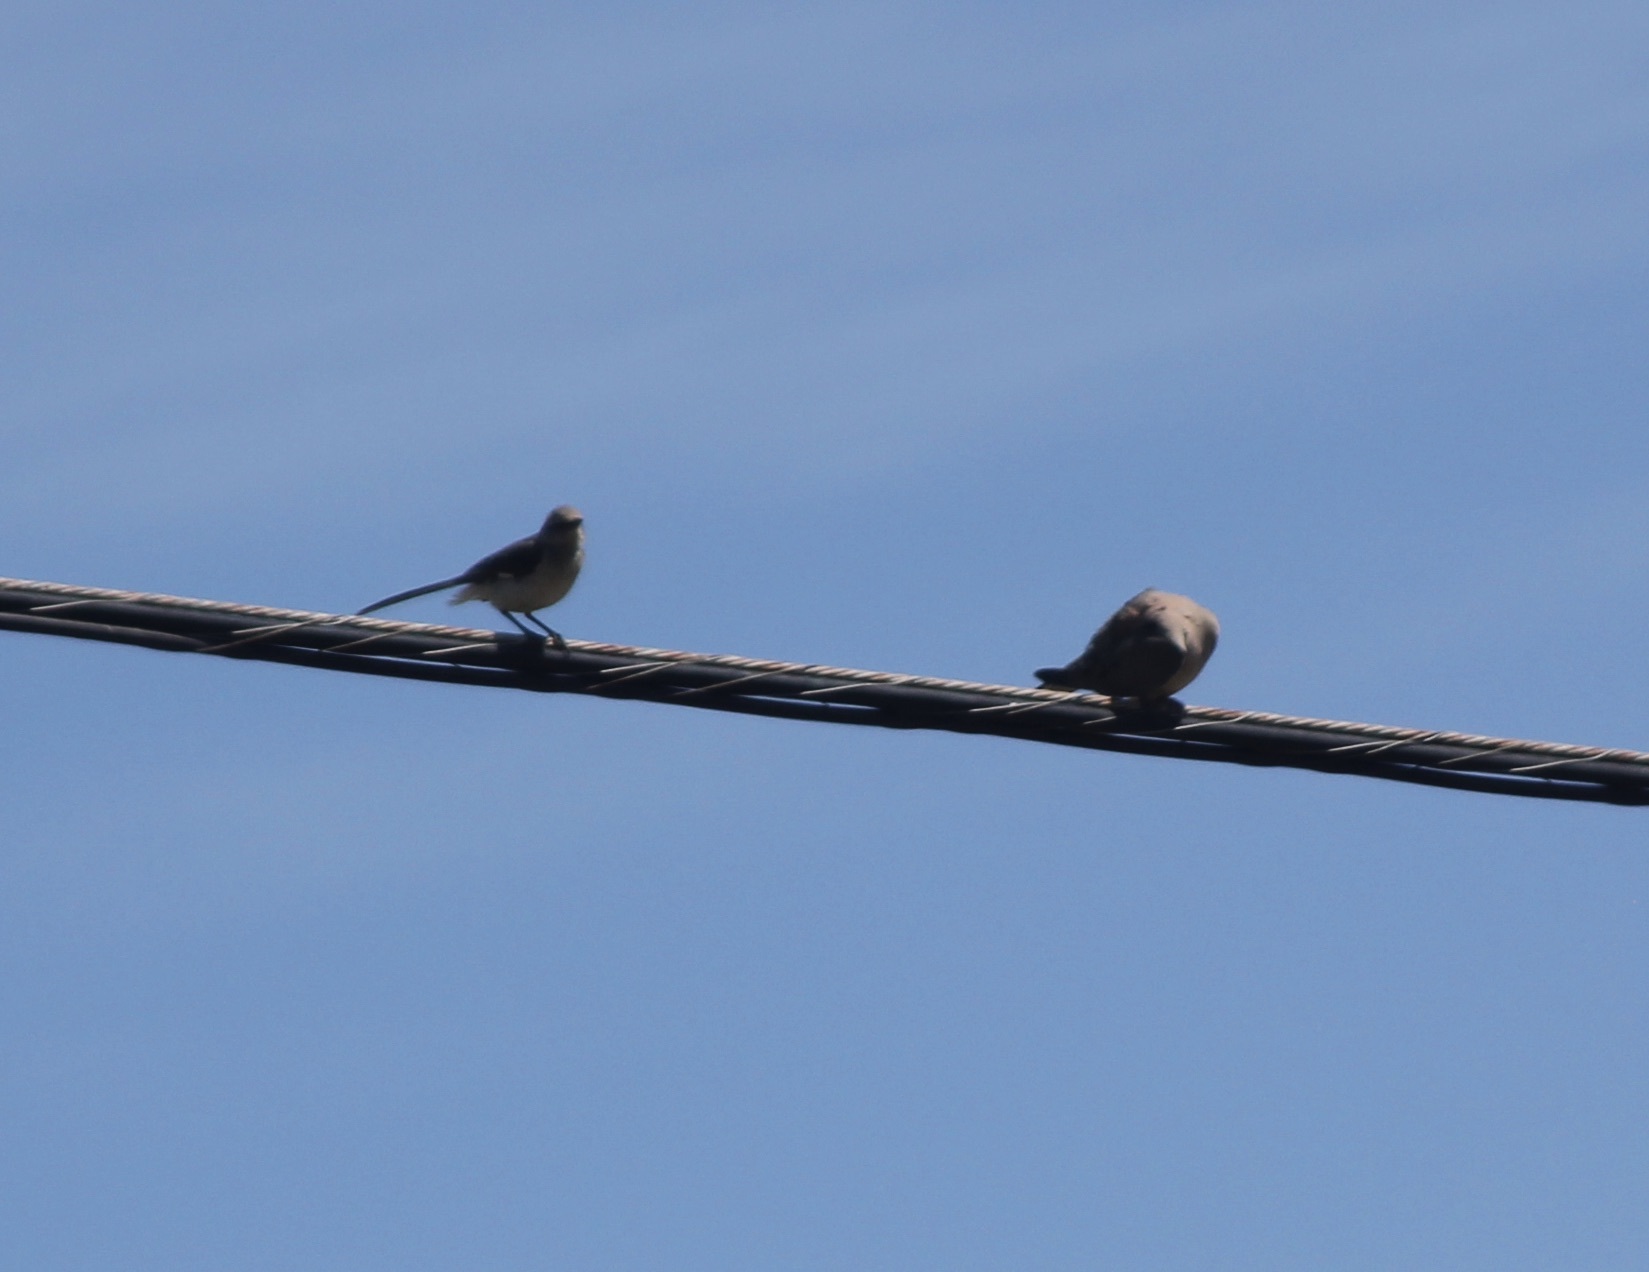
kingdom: Animalia
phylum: Chordata
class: Aves
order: Passeriformes
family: Mimidae
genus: Mimus
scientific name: Mimus polyglottos
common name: Northern mockingbird
